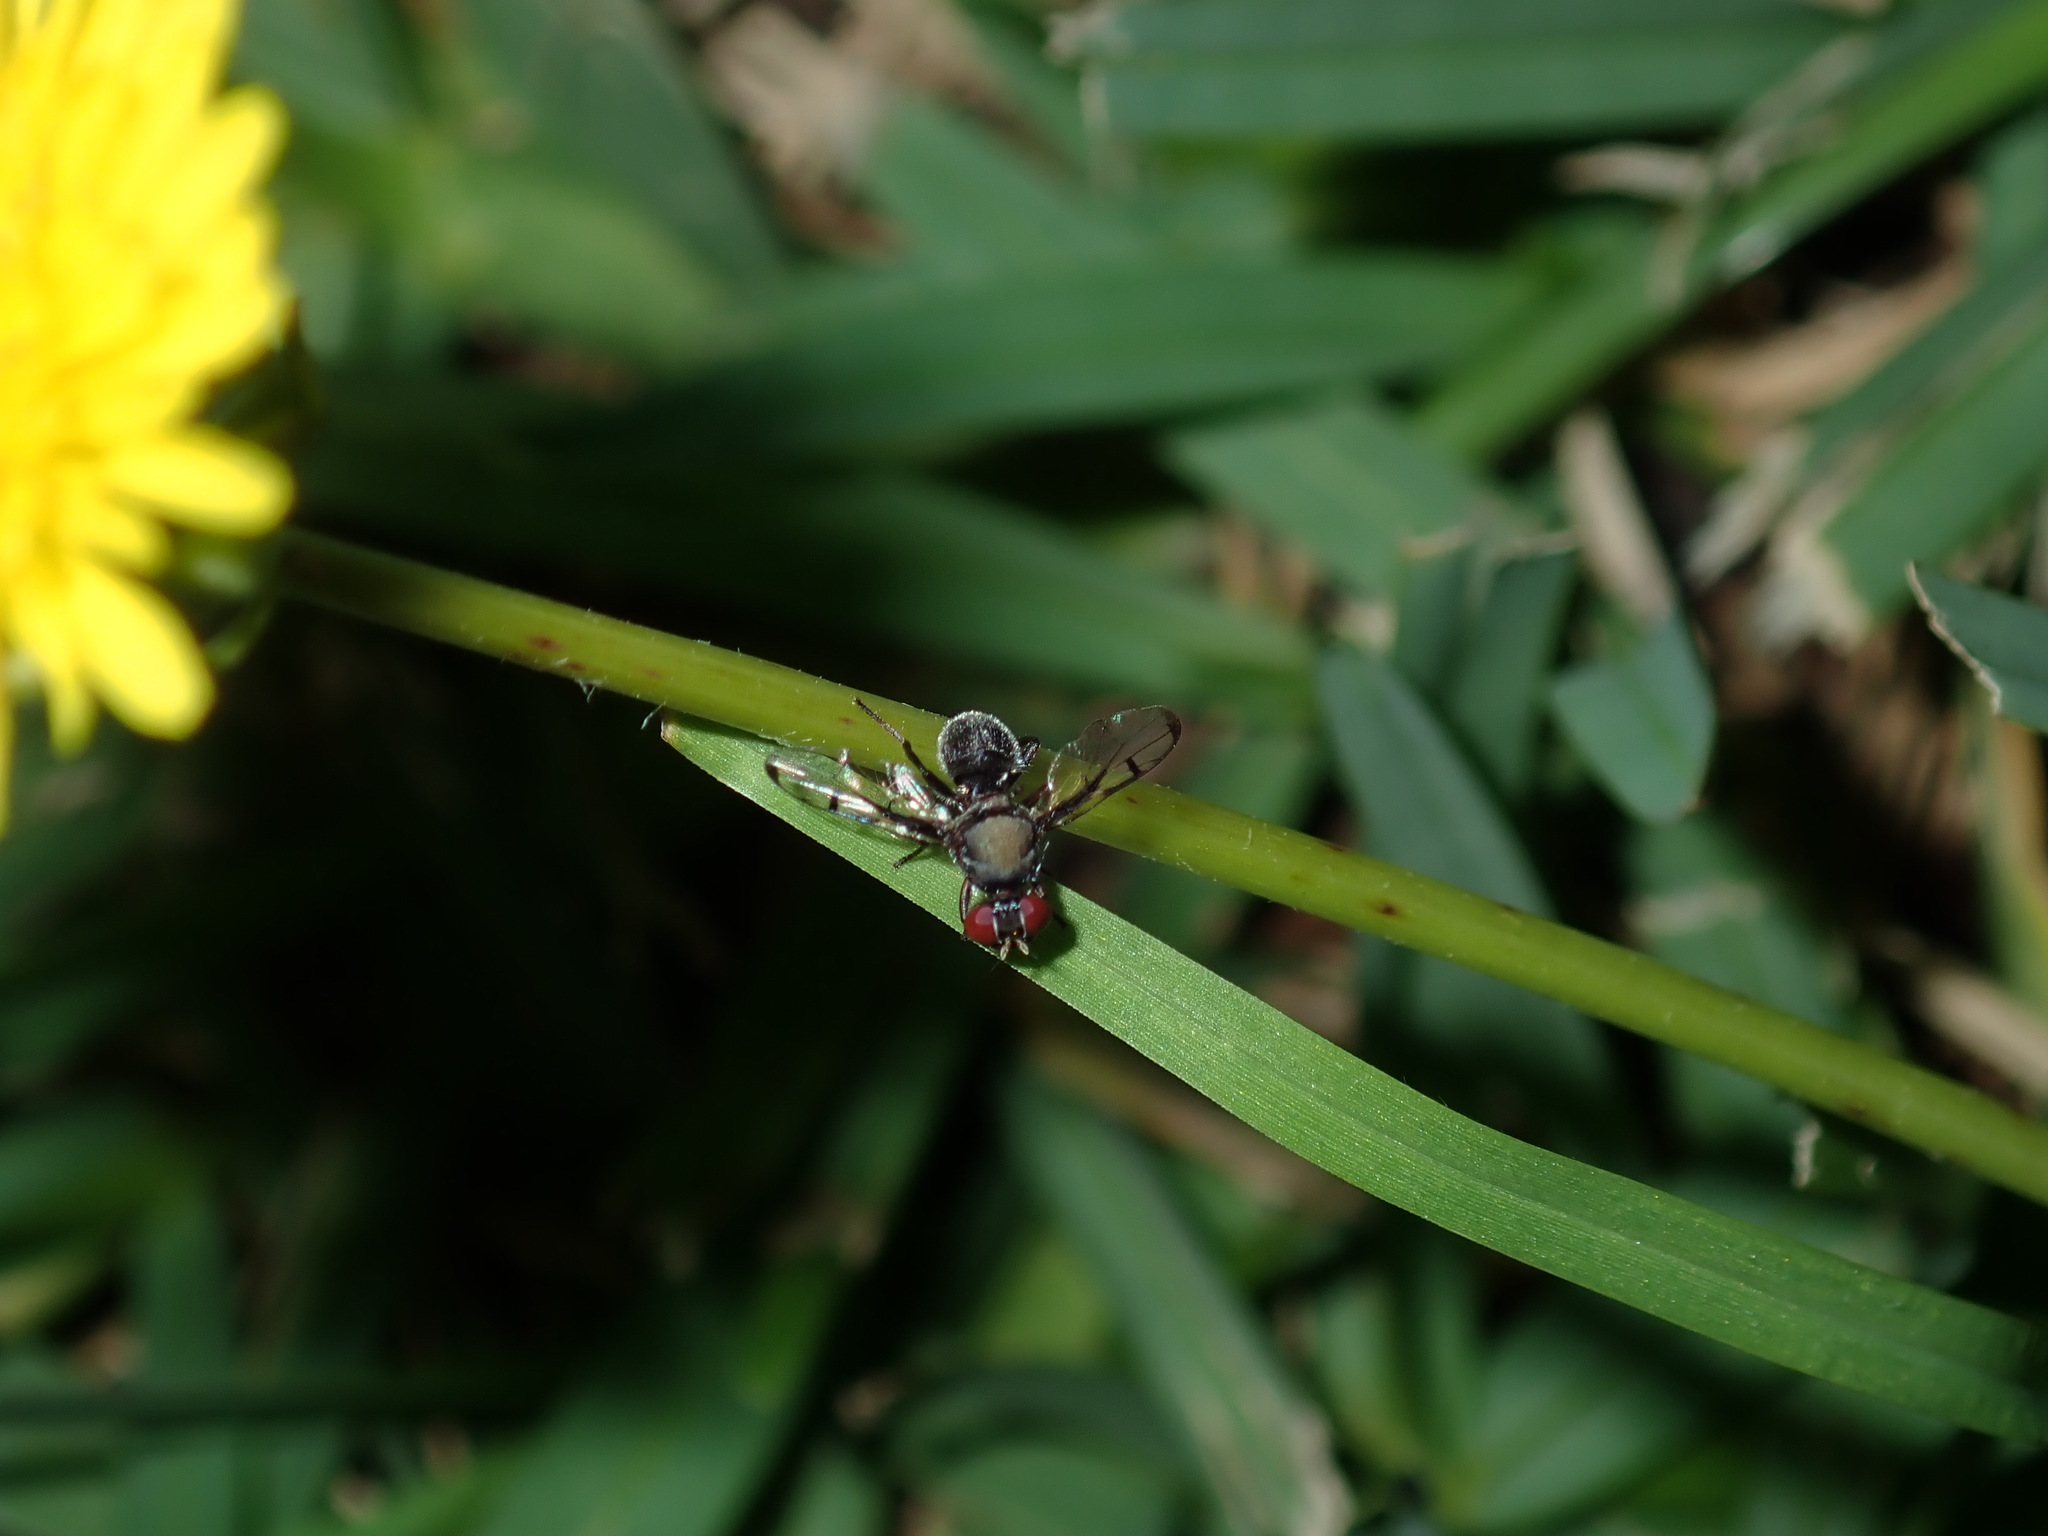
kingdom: Animalia
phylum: Arthropoda
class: Insecta
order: Diptera
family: Platystomatidae
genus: Pogonortalis
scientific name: Pogonortalis doclea
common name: Boatman fly
